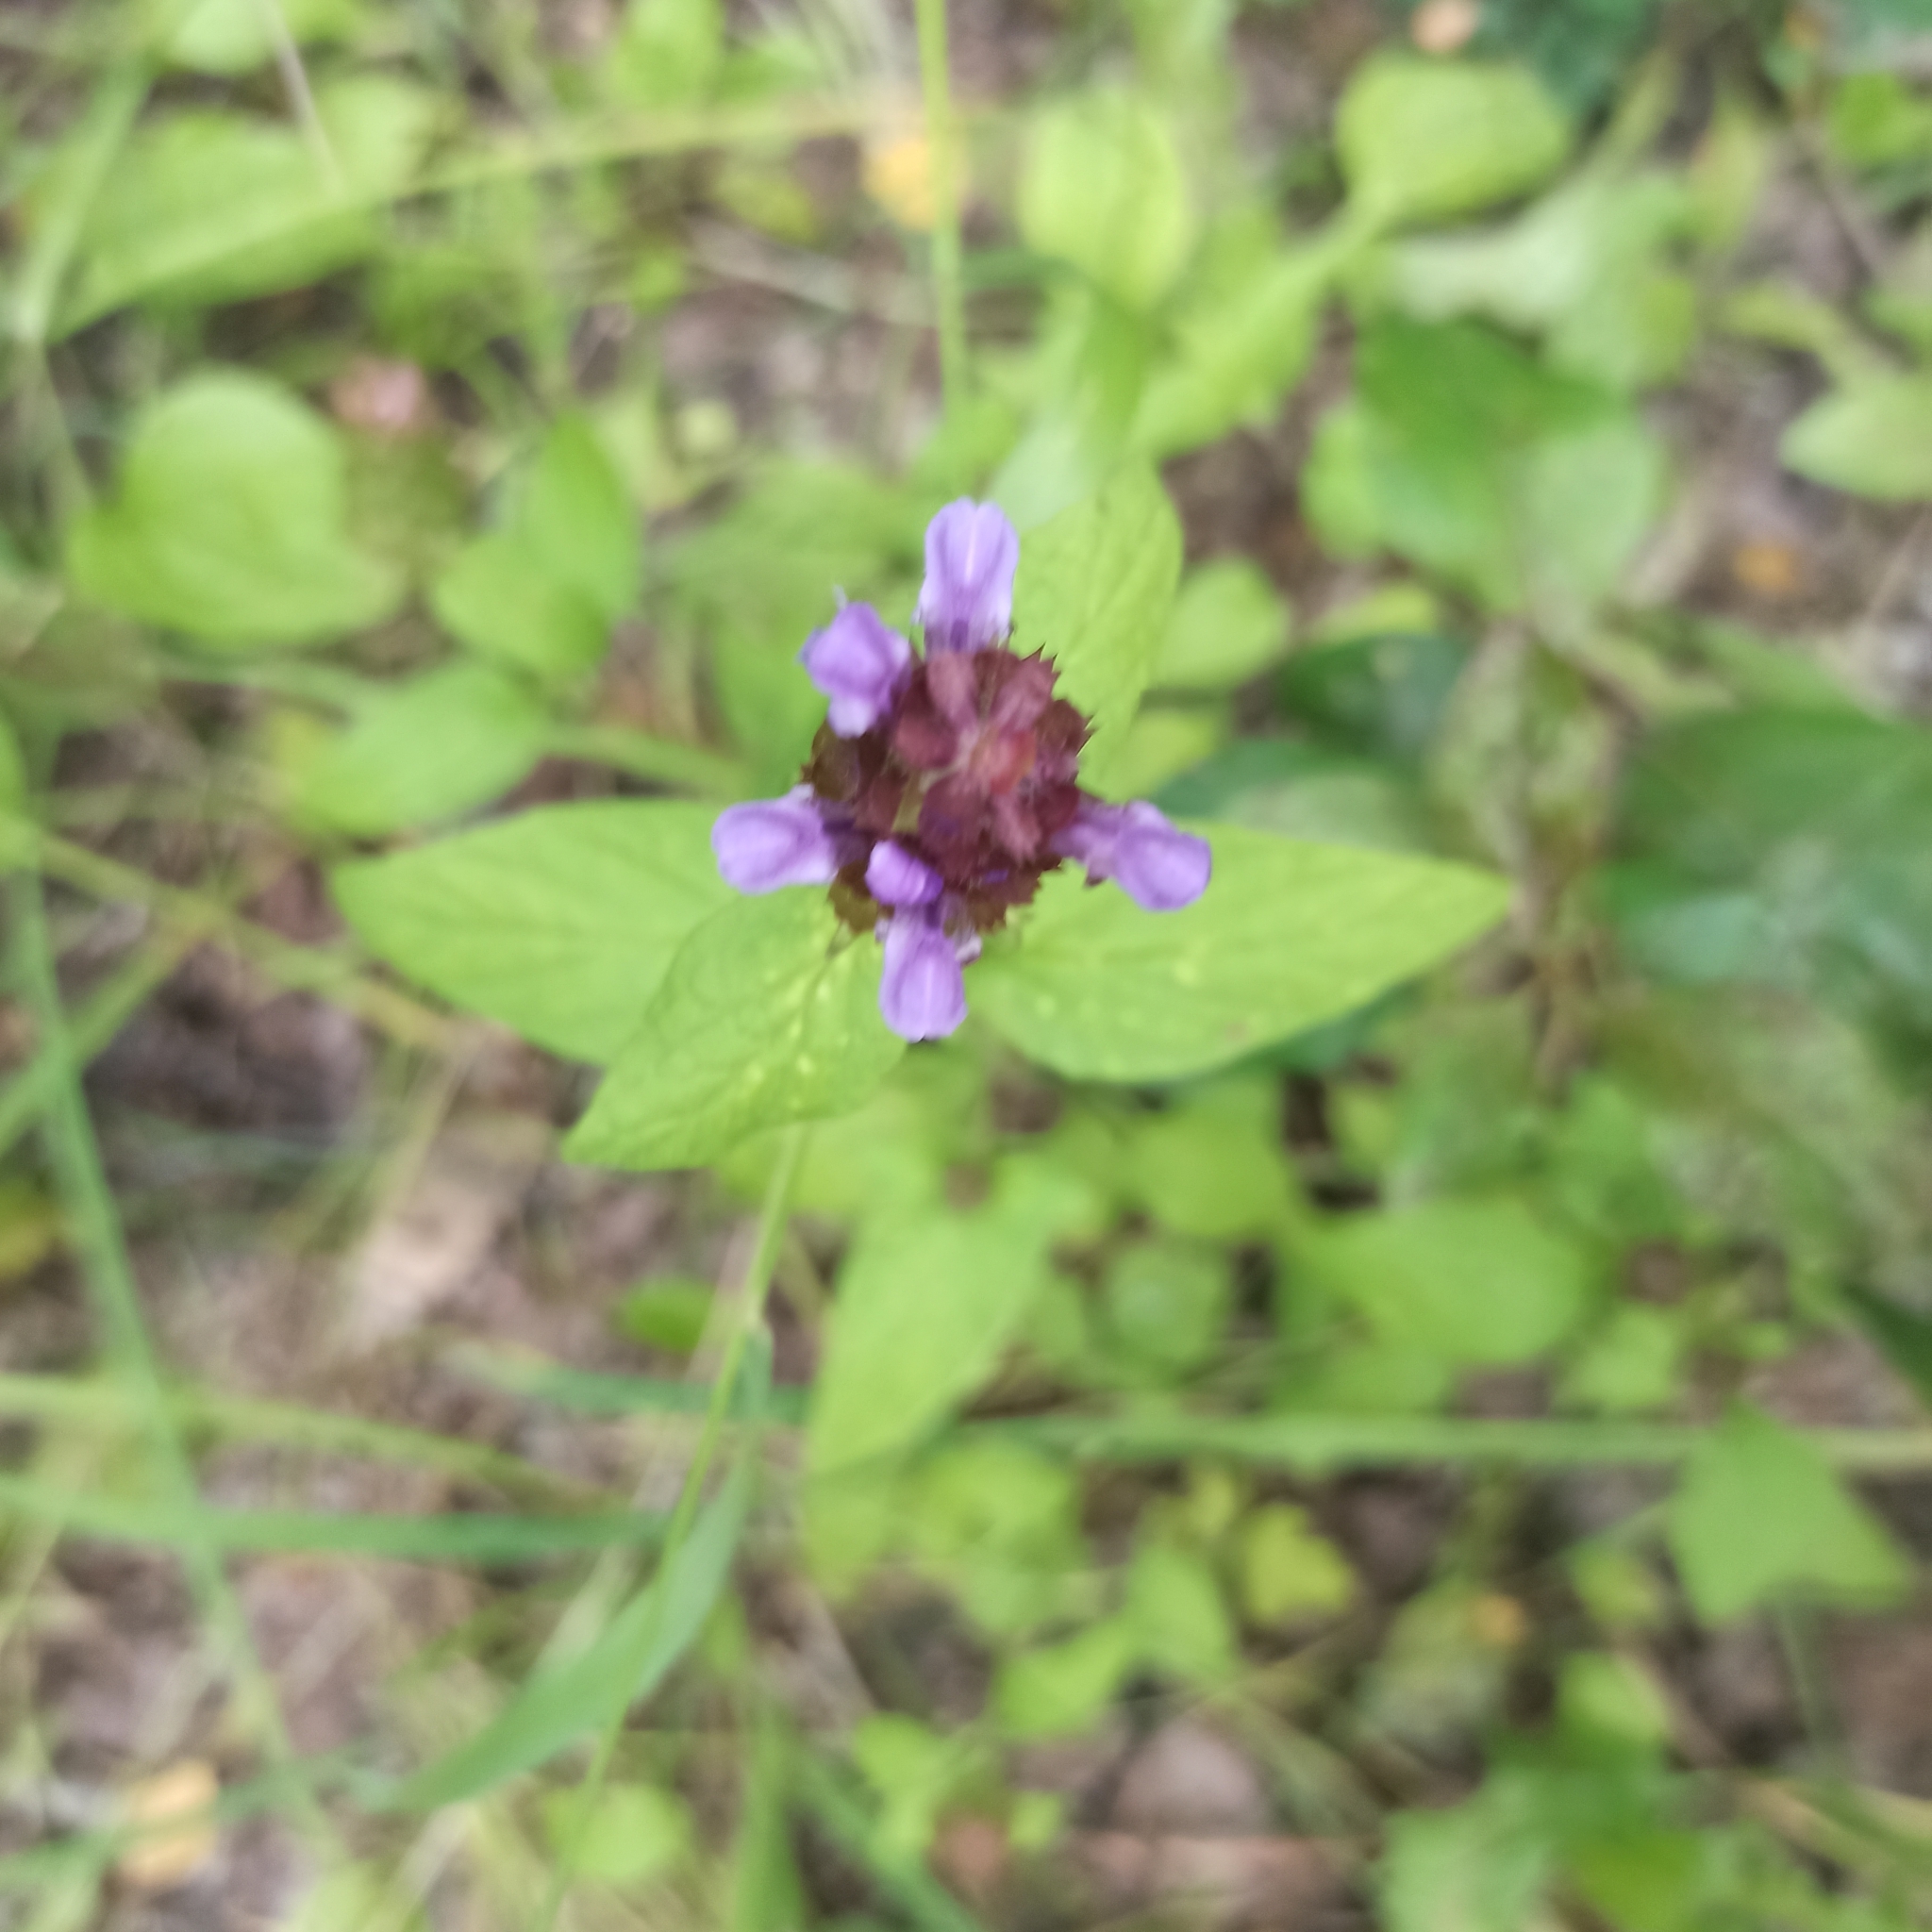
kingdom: Plantae
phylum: Tracheophyta
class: Magnoliopsida
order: Lamiales
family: Lamiaceae
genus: Prunella
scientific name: Prunella vulgaris
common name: Heal-all
